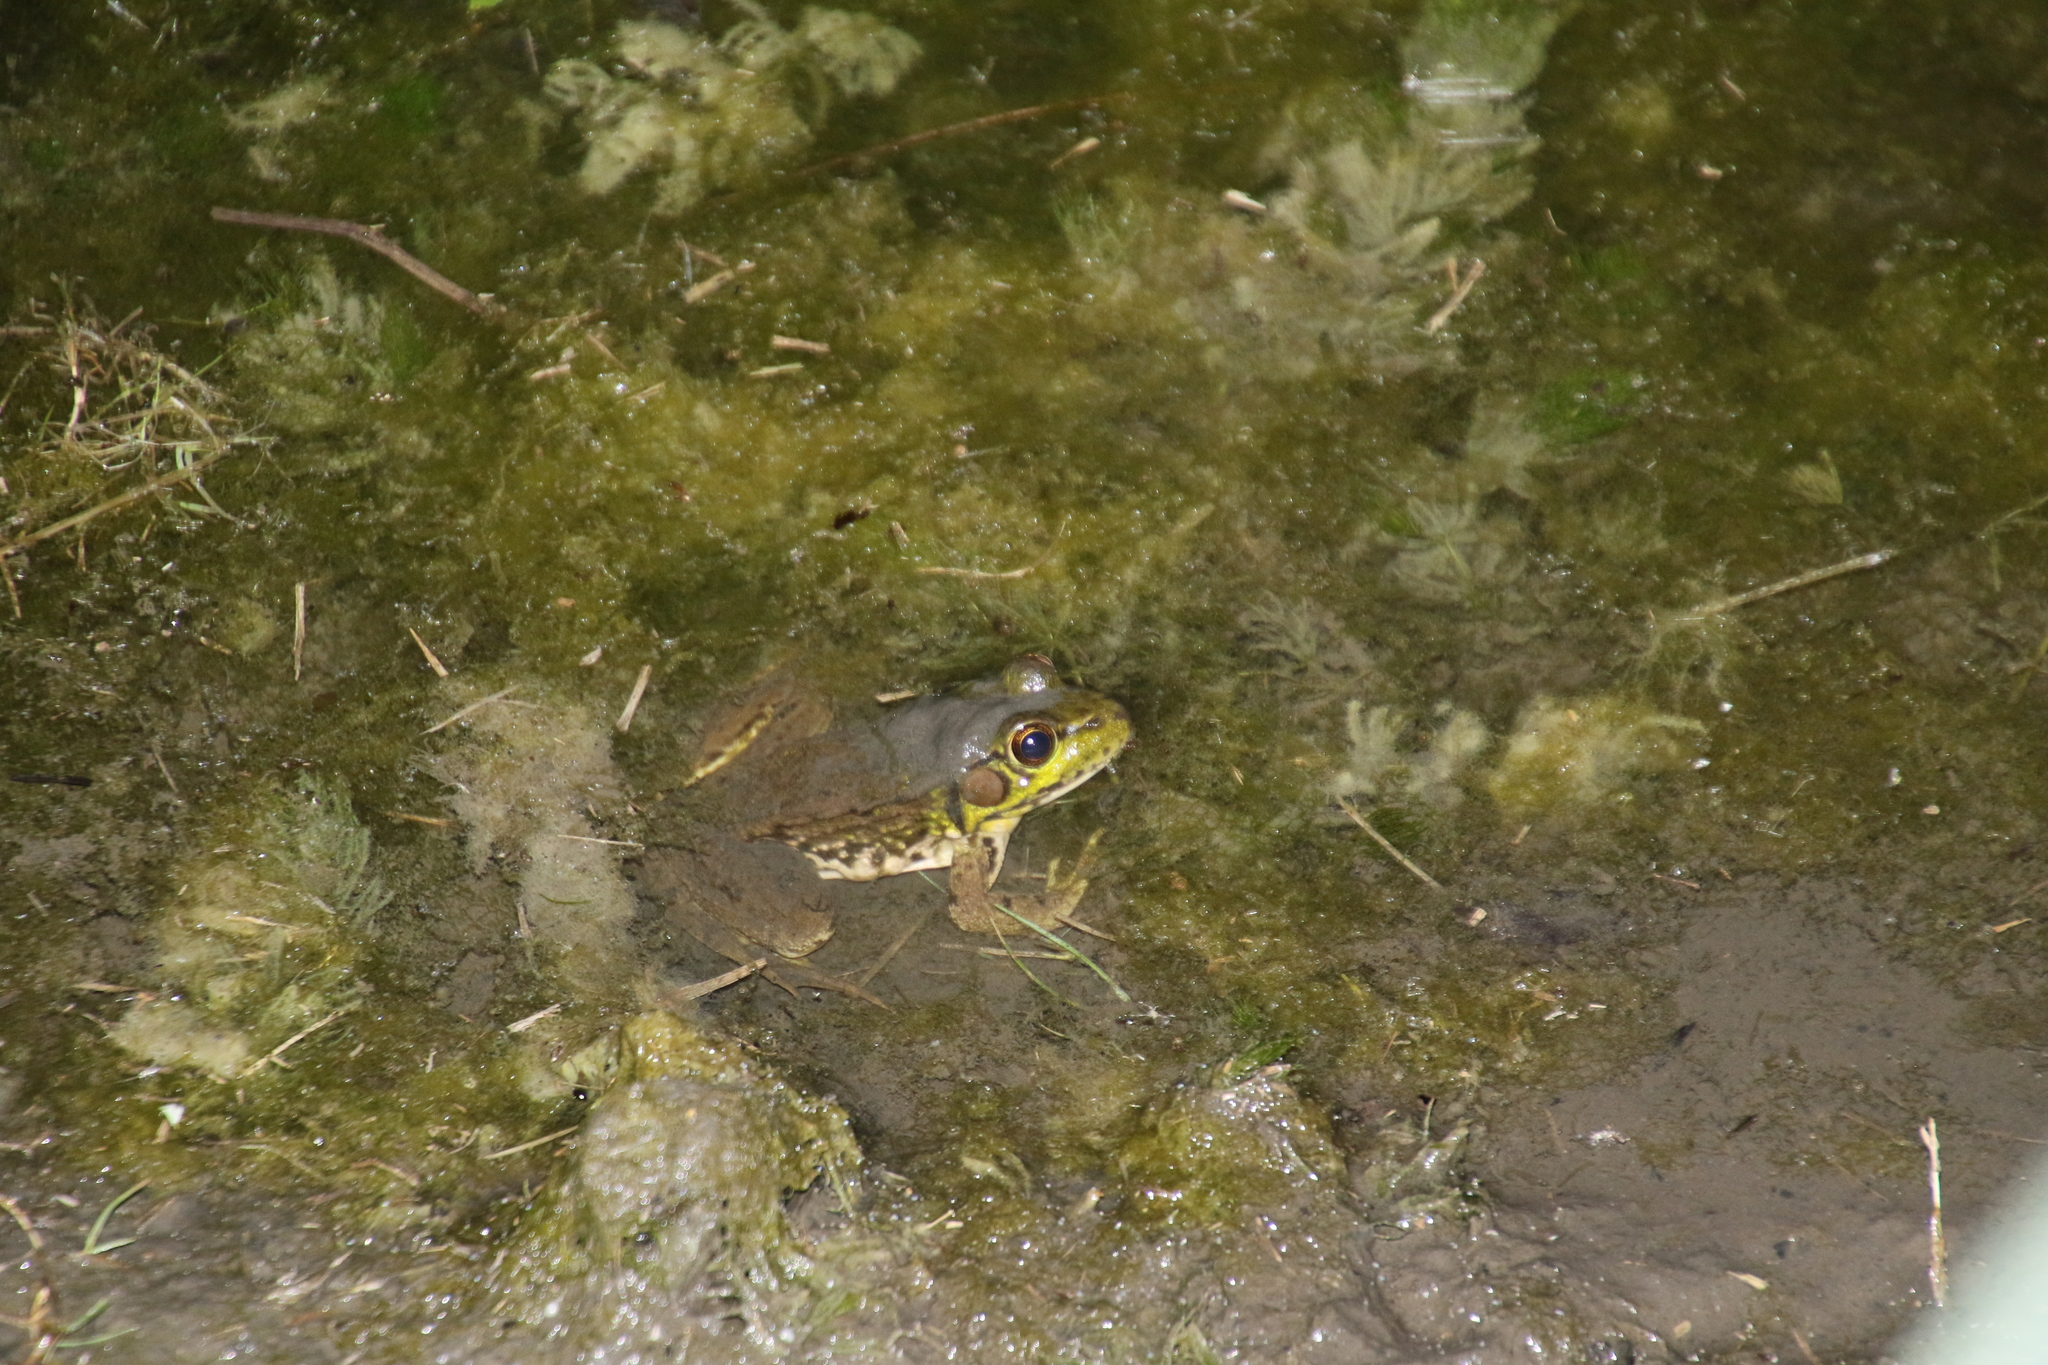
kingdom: Animalia
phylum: Chordata
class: Amphibia
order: Anura
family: Ranidae
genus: Lithobates
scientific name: Lithobates clamitans
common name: Green frog
